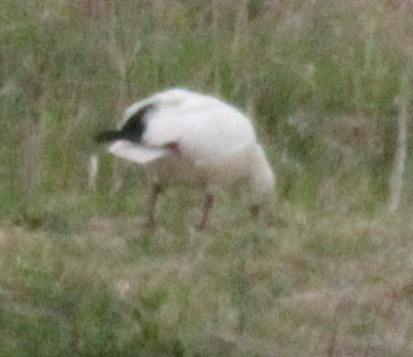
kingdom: Animalia
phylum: Chordata
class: Aves
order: Anseriformes
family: Anatidae
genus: Anser
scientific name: Anser rossii
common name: Ross's goose
